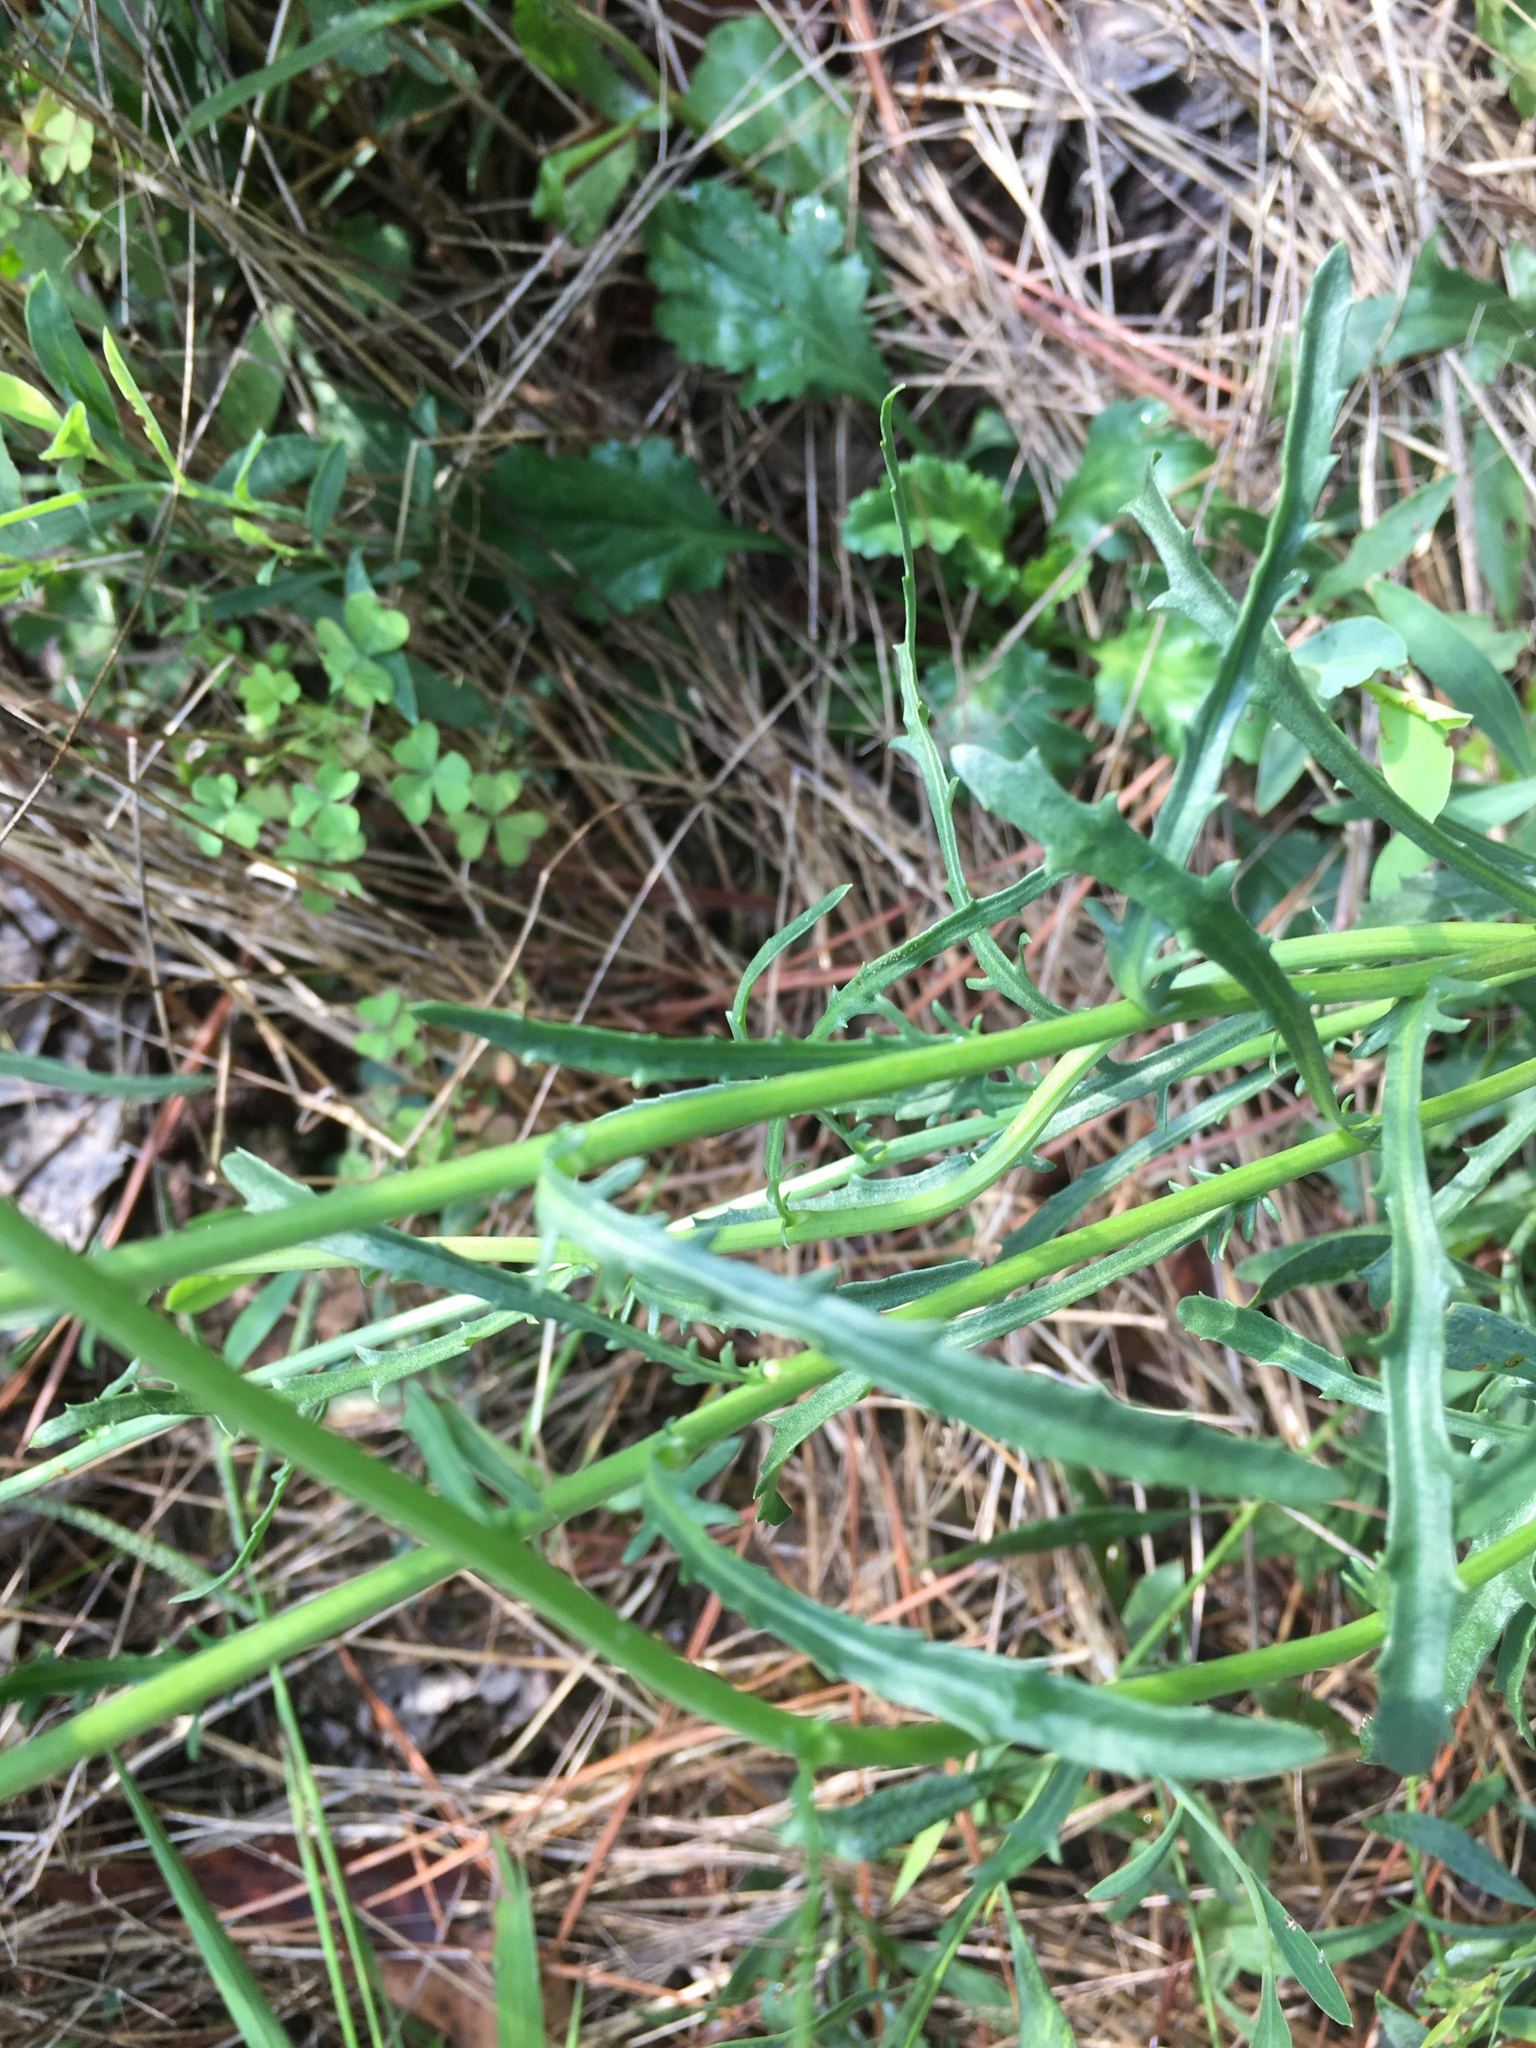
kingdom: Plantae
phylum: Tracheophyta
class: Magnoliopsida
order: Asterales
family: Asteraceae
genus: Leucanthemum
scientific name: Leucanthemum vulgare
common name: Oxeye daisy
